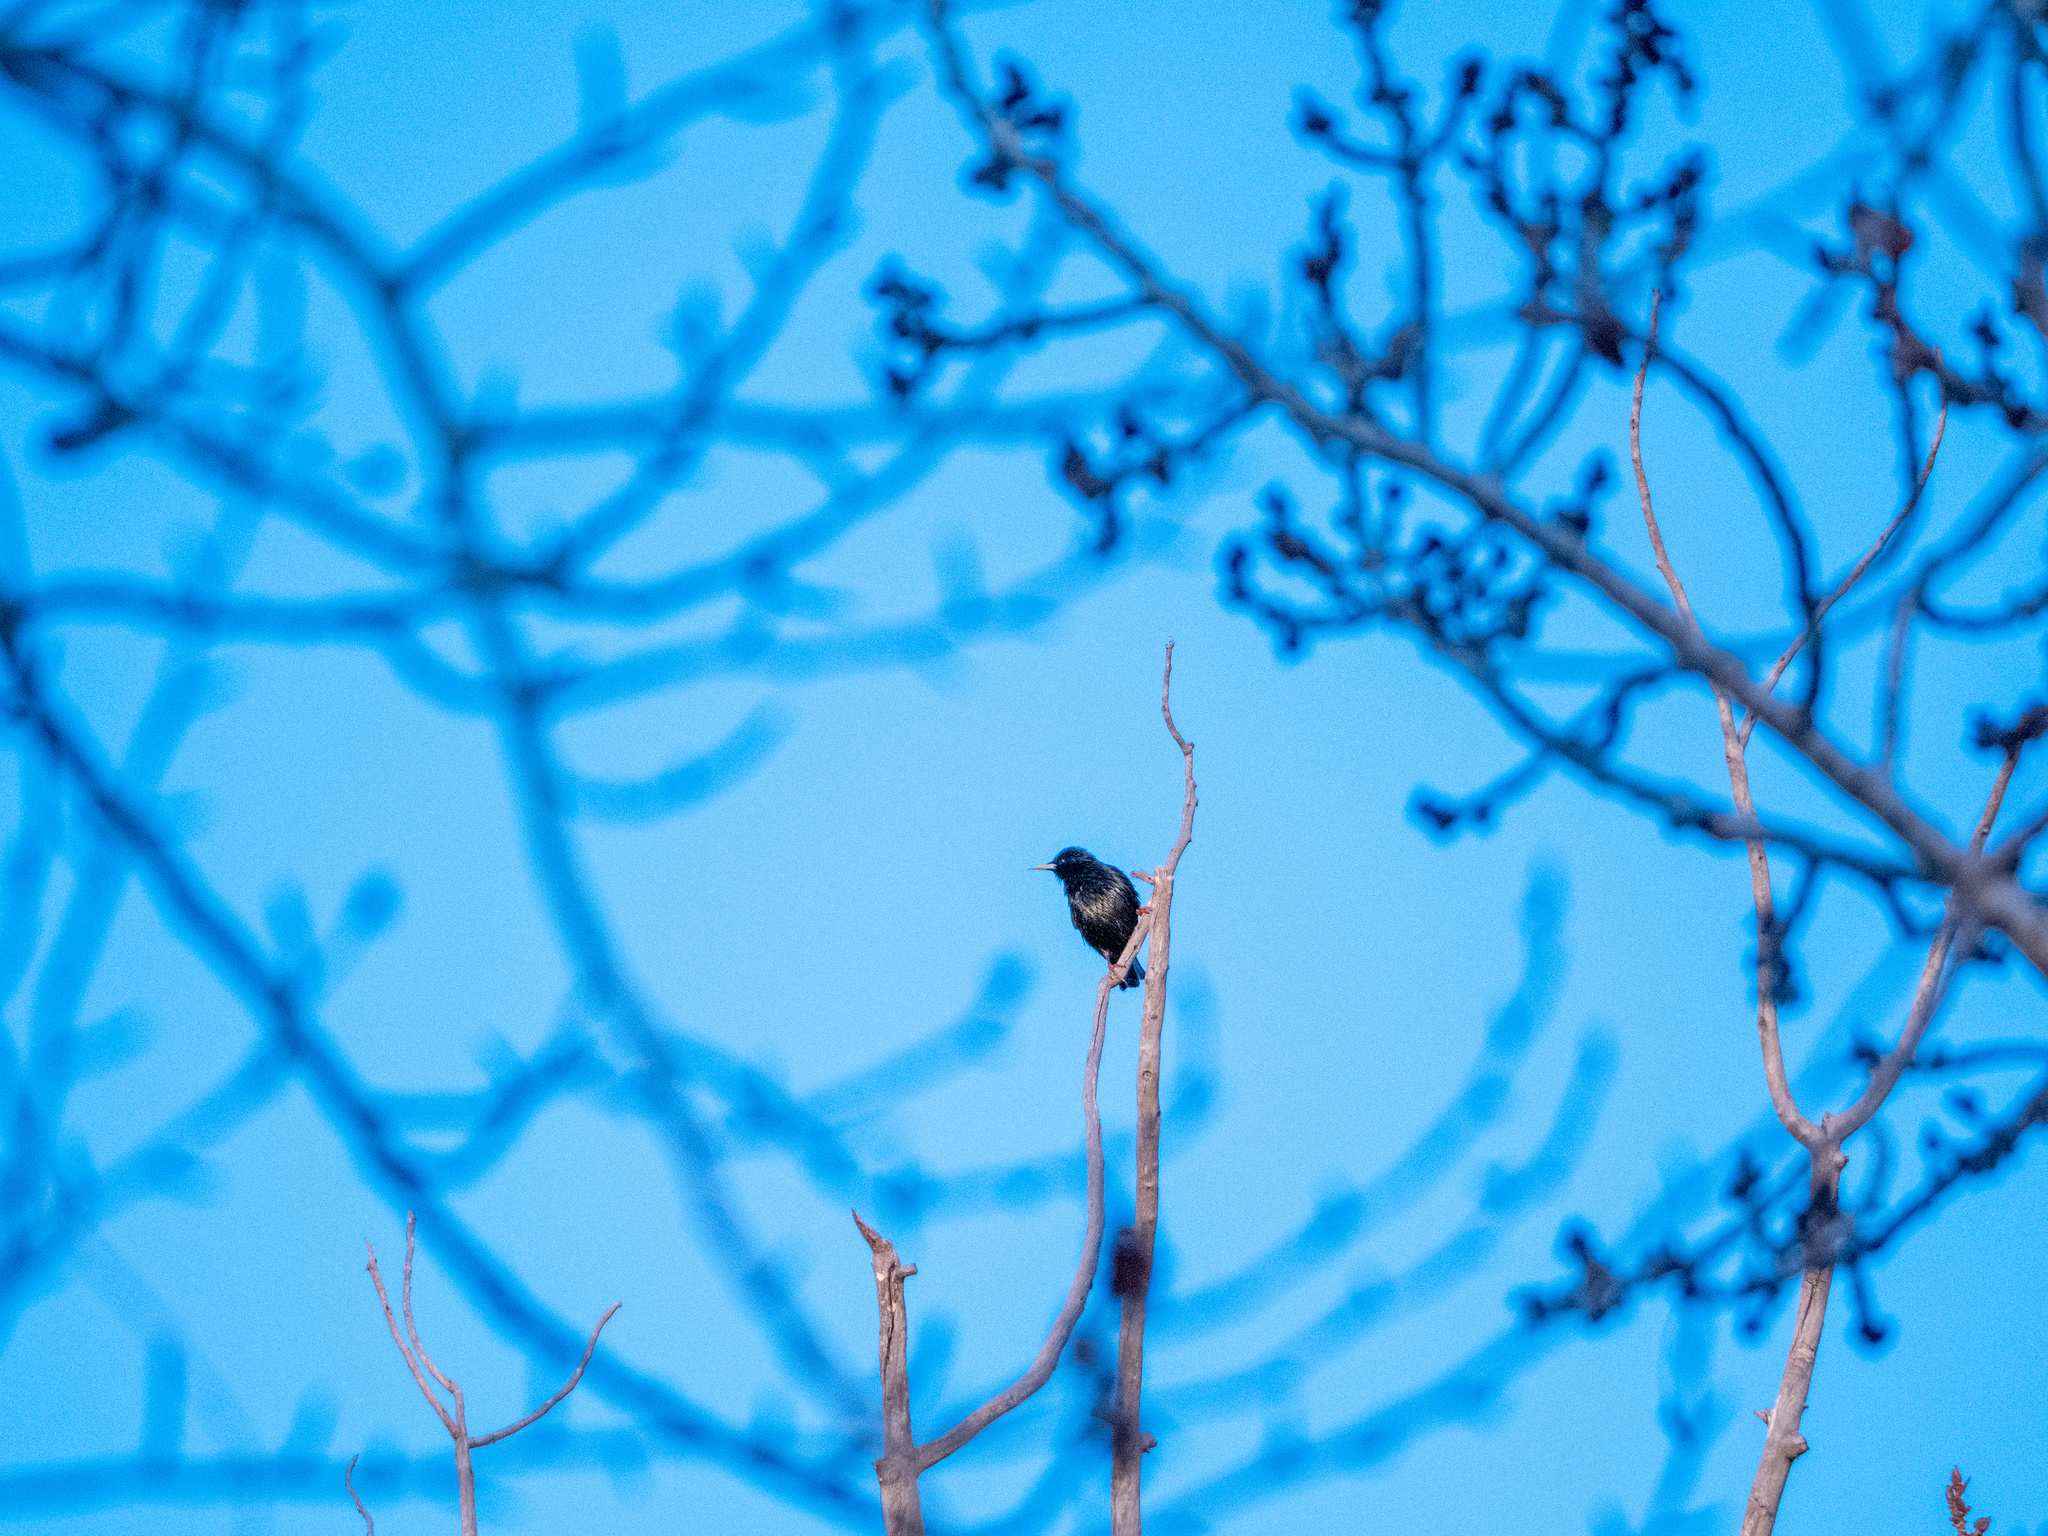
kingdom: Animalia
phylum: Chordata
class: Aves
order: Passeriformes
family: Sturnidae
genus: Sturnus
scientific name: Sturnus vulgaris
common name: Common starling
